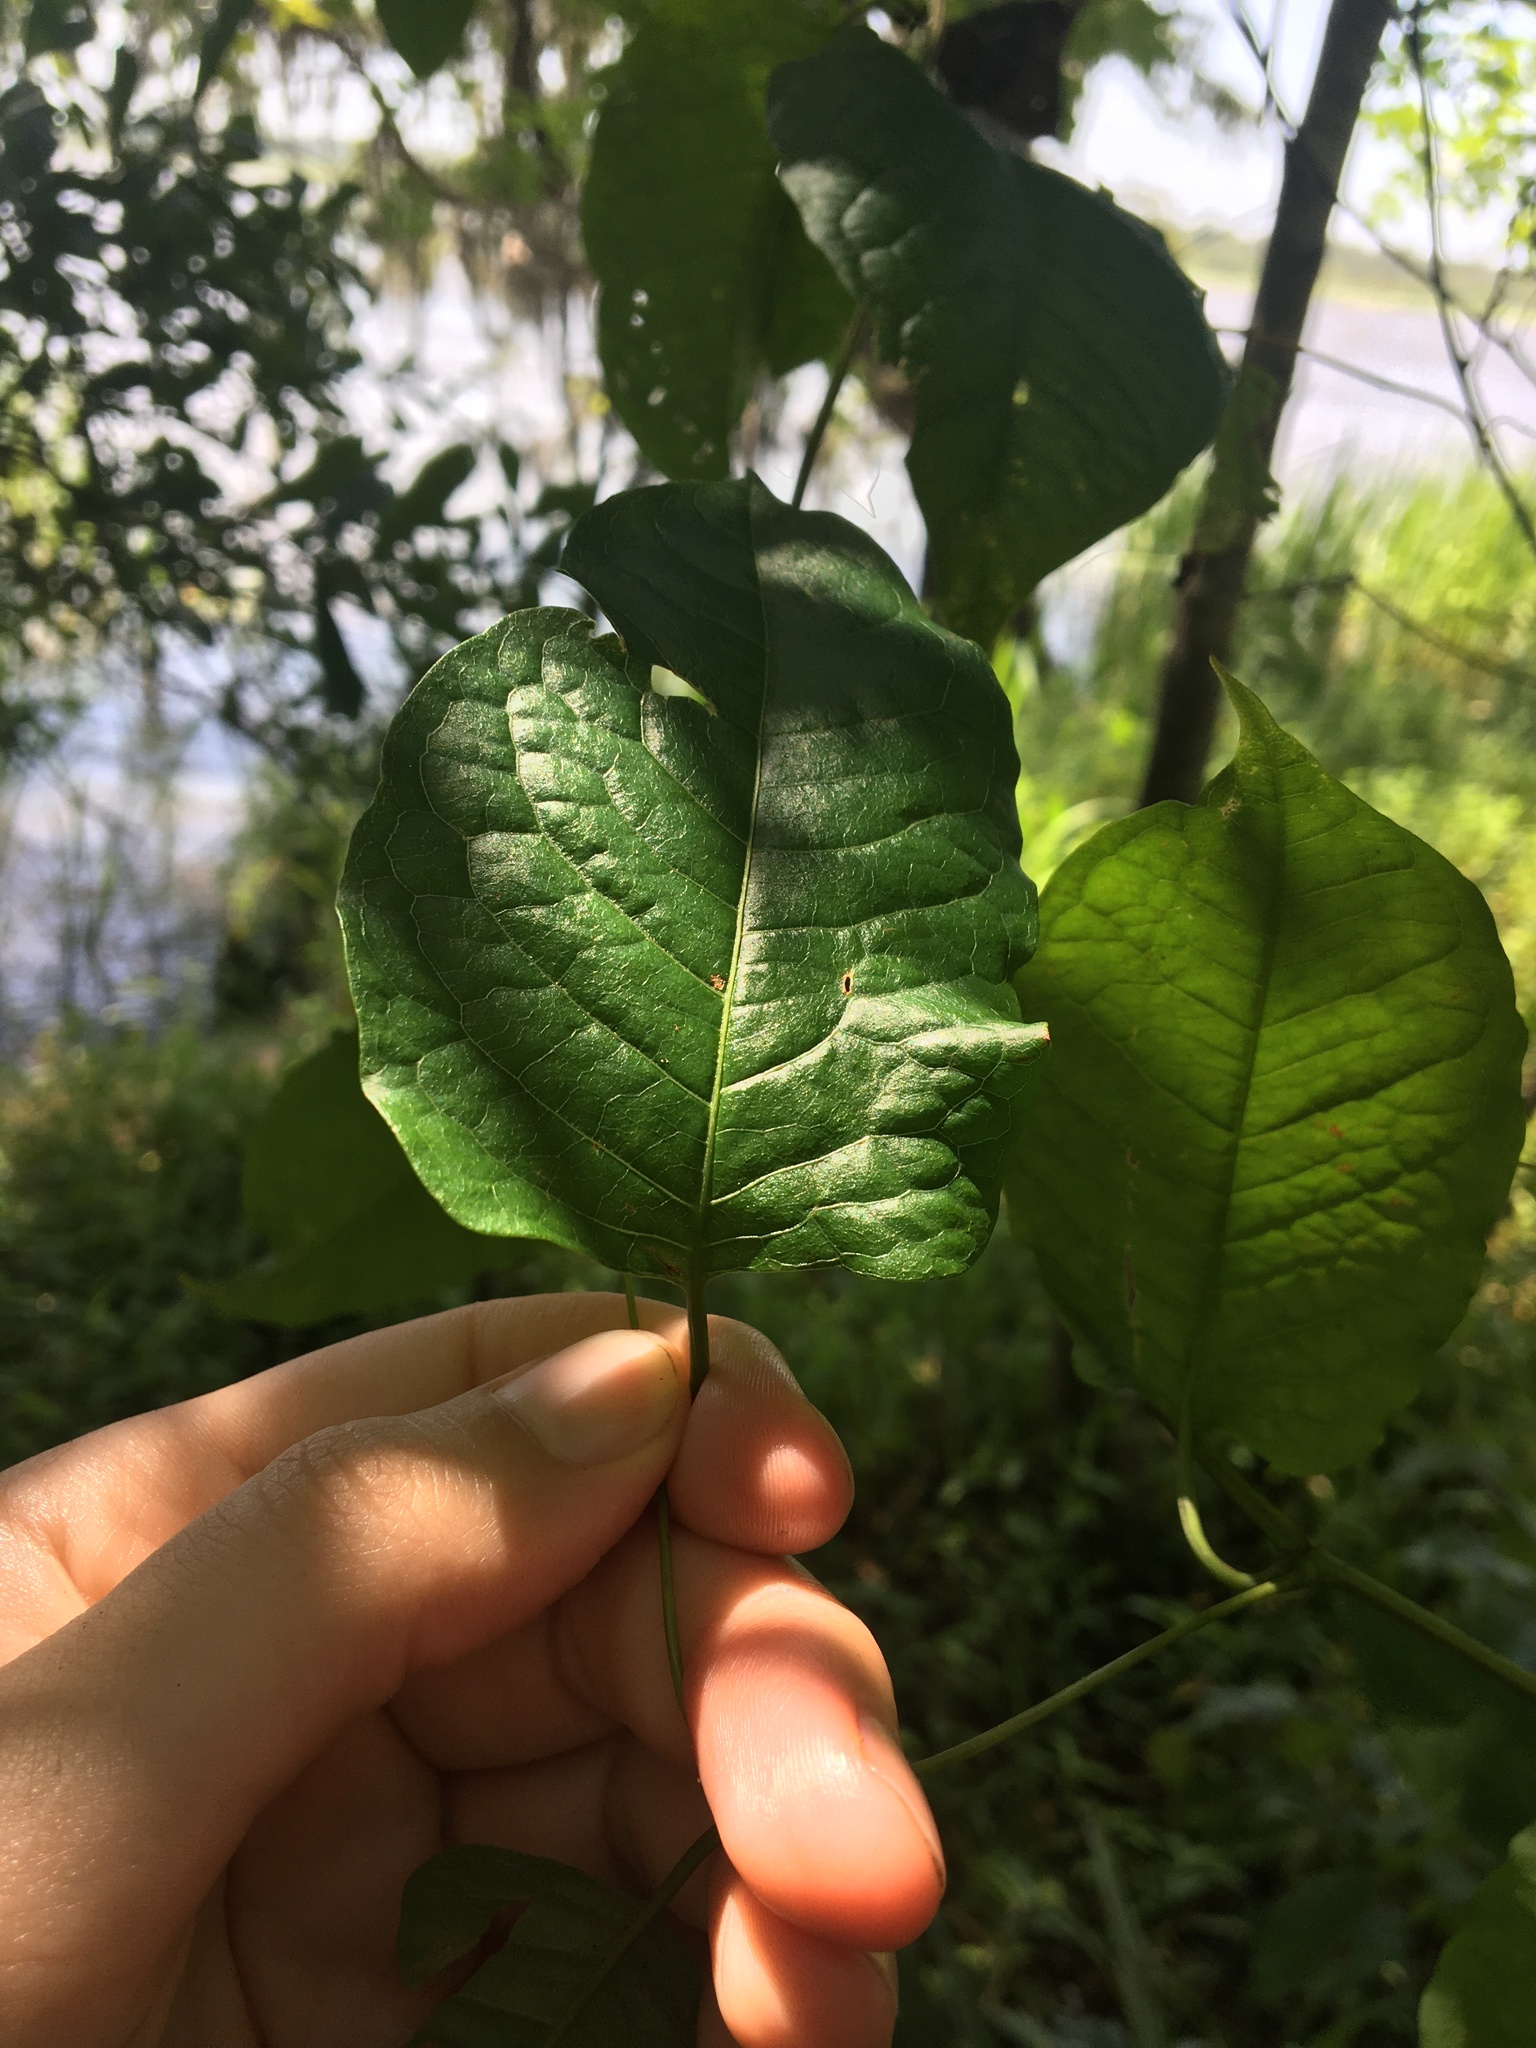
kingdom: Plantae
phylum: Tracheophyta
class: Magnoliopsida
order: Caryophyllales
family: Polygonaceae
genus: Brunnichia
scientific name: Brunnichia ovata
